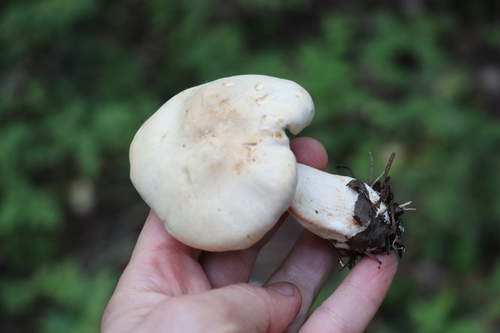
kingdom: Fungi
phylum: Basidiomycota
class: Agaricomycetes
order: Agaricales
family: Tricholomataceae
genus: Clitocybe
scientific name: Clitocybe nebularis
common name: Clouded agaric
